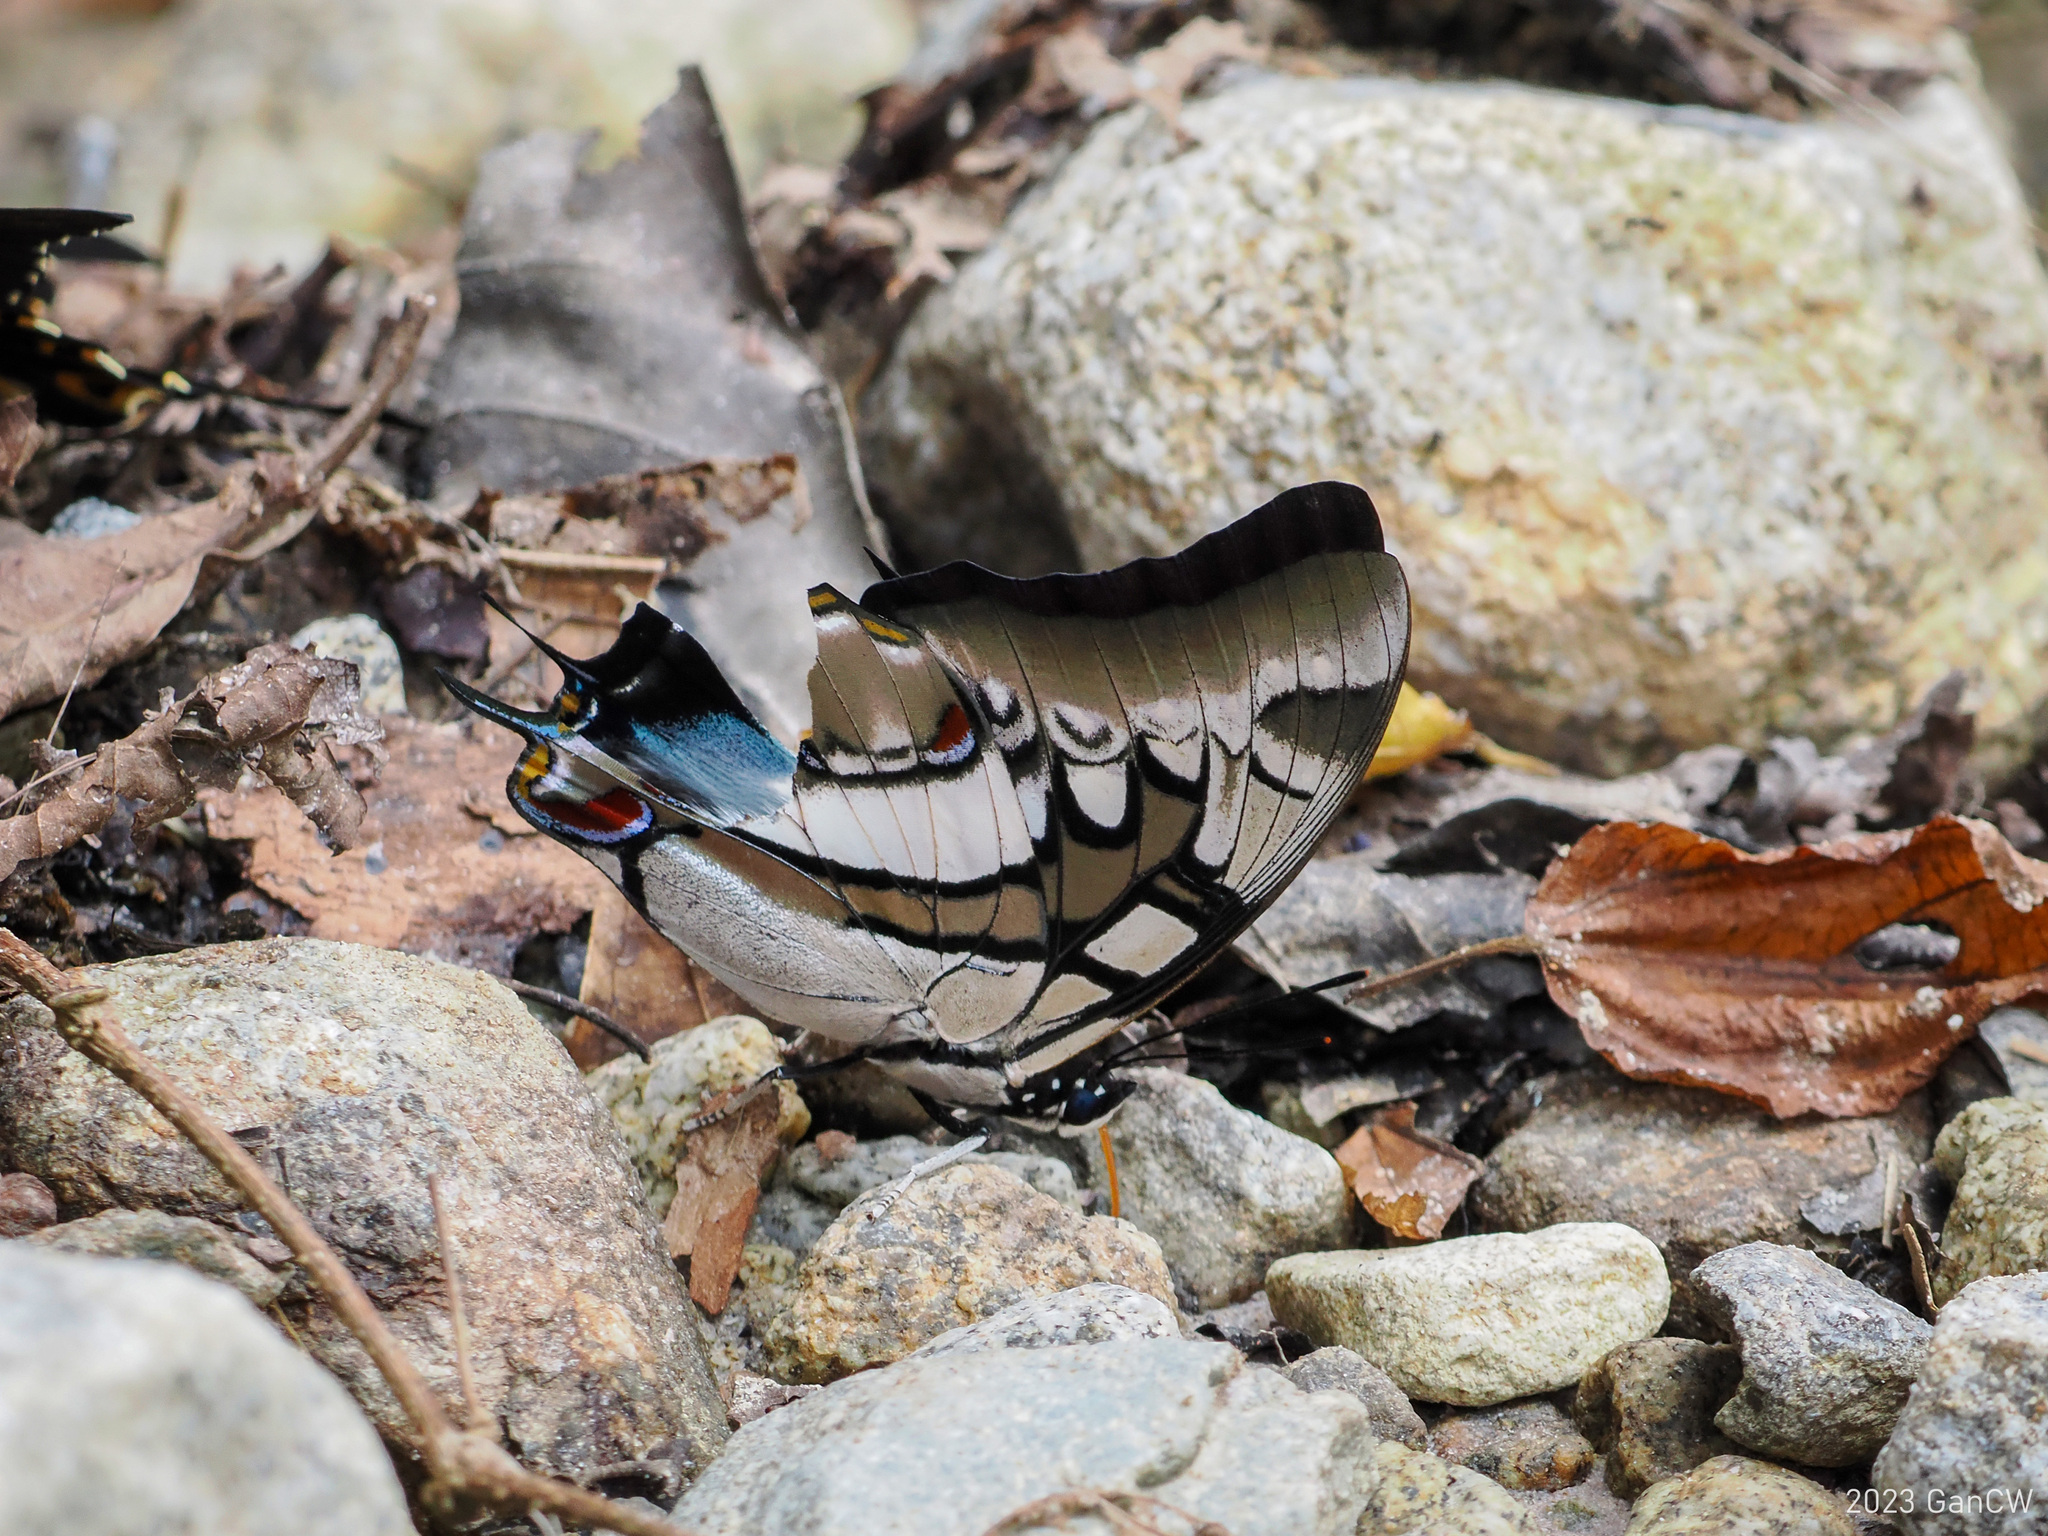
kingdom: Animalia
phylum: Arthropoda
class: Insecta
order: Lepidoptera
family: Nymphalidae
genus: Polyura
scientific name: Polyura cognatus
